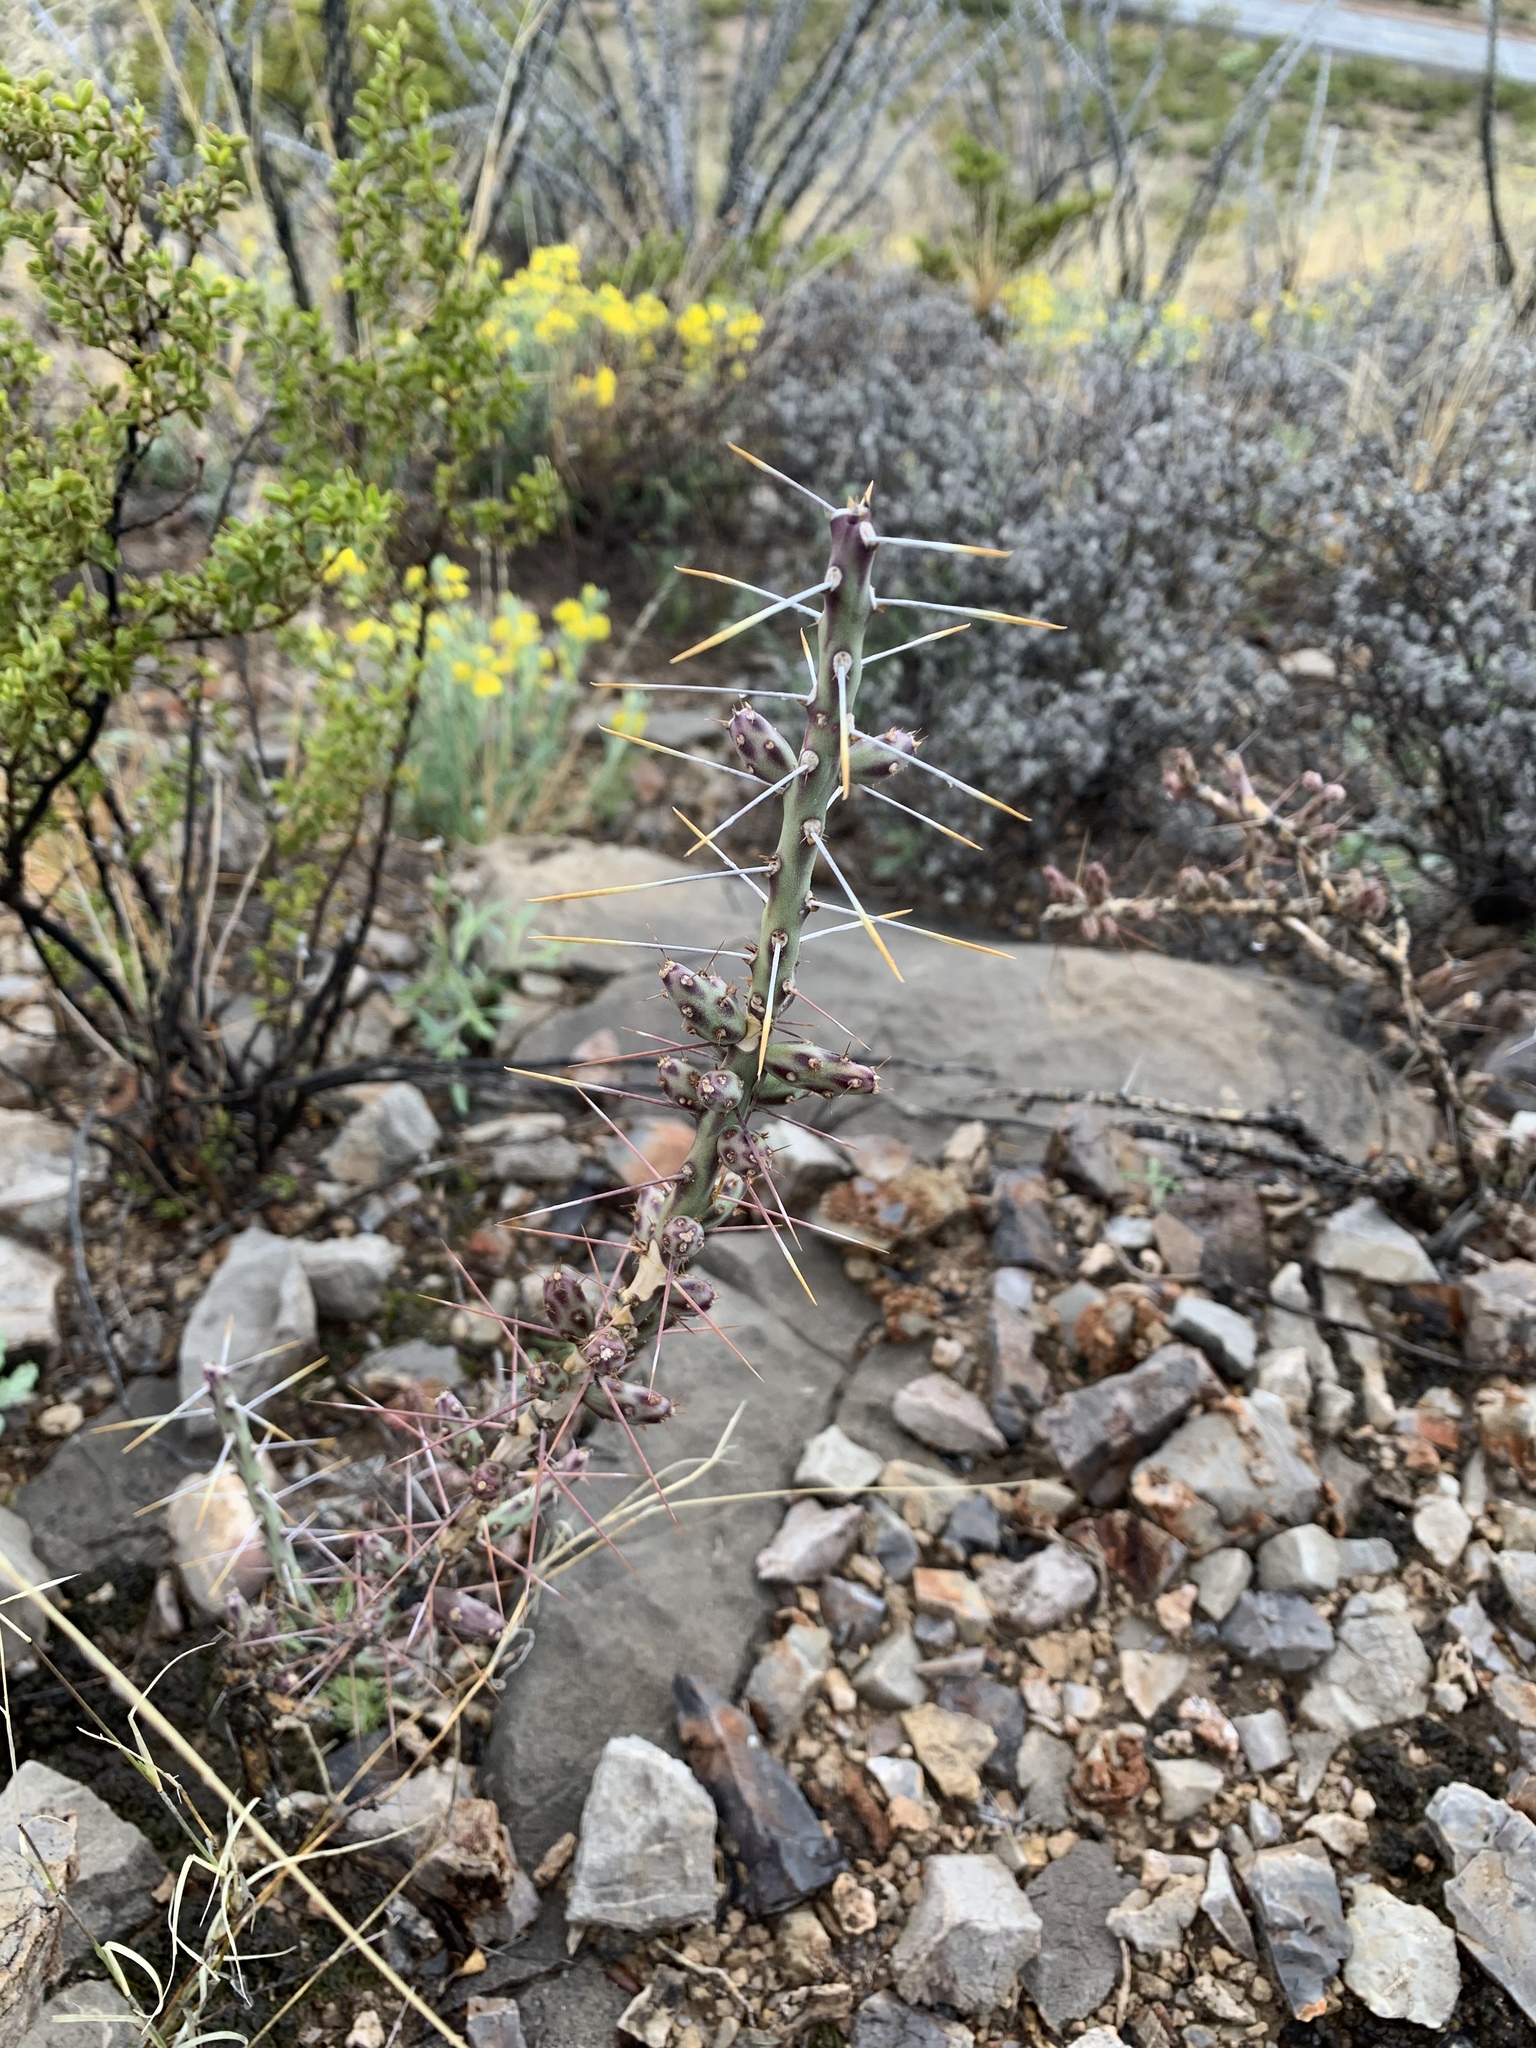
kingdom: Plantae
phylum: Tracheophyta
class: Magnoliopsida
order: Caryophyllales
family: Cactaceae
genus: Cylindropuntia
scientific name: Cylindropuntia leptocaulis
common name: Christmas cactus
